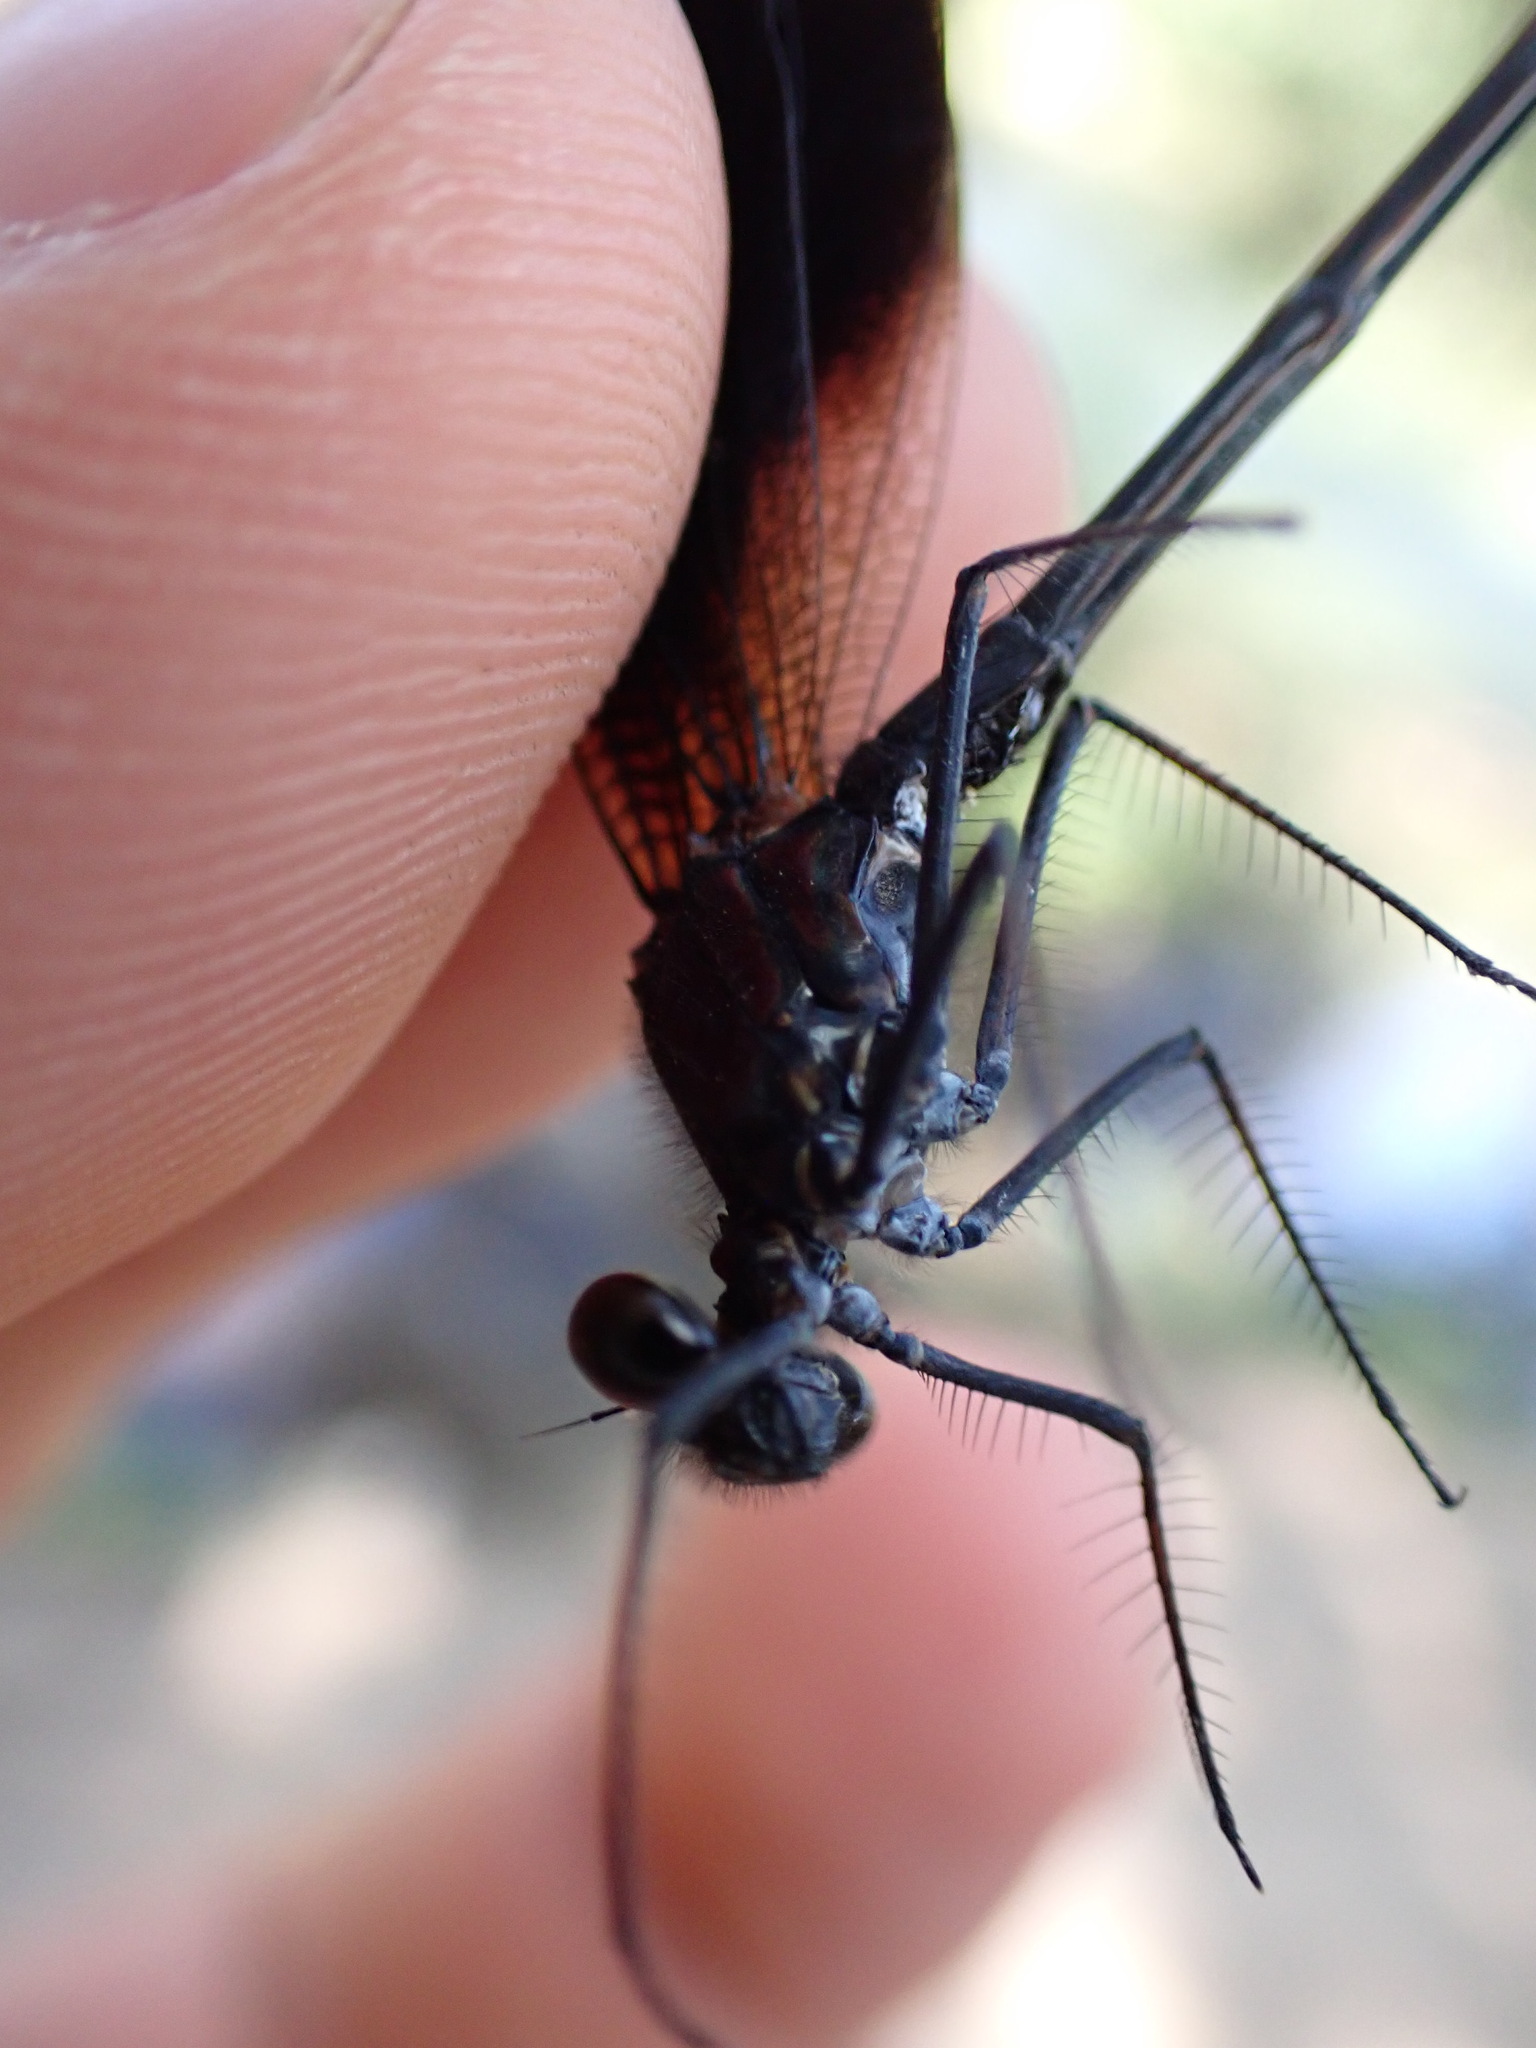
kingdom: Animalia
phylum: Arthropoda
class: Insecta
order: Odonata
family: Calopterygidae
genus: Calopteryx
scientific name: Calopteryx haemorrhoidalis
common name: Copper demoiselle
